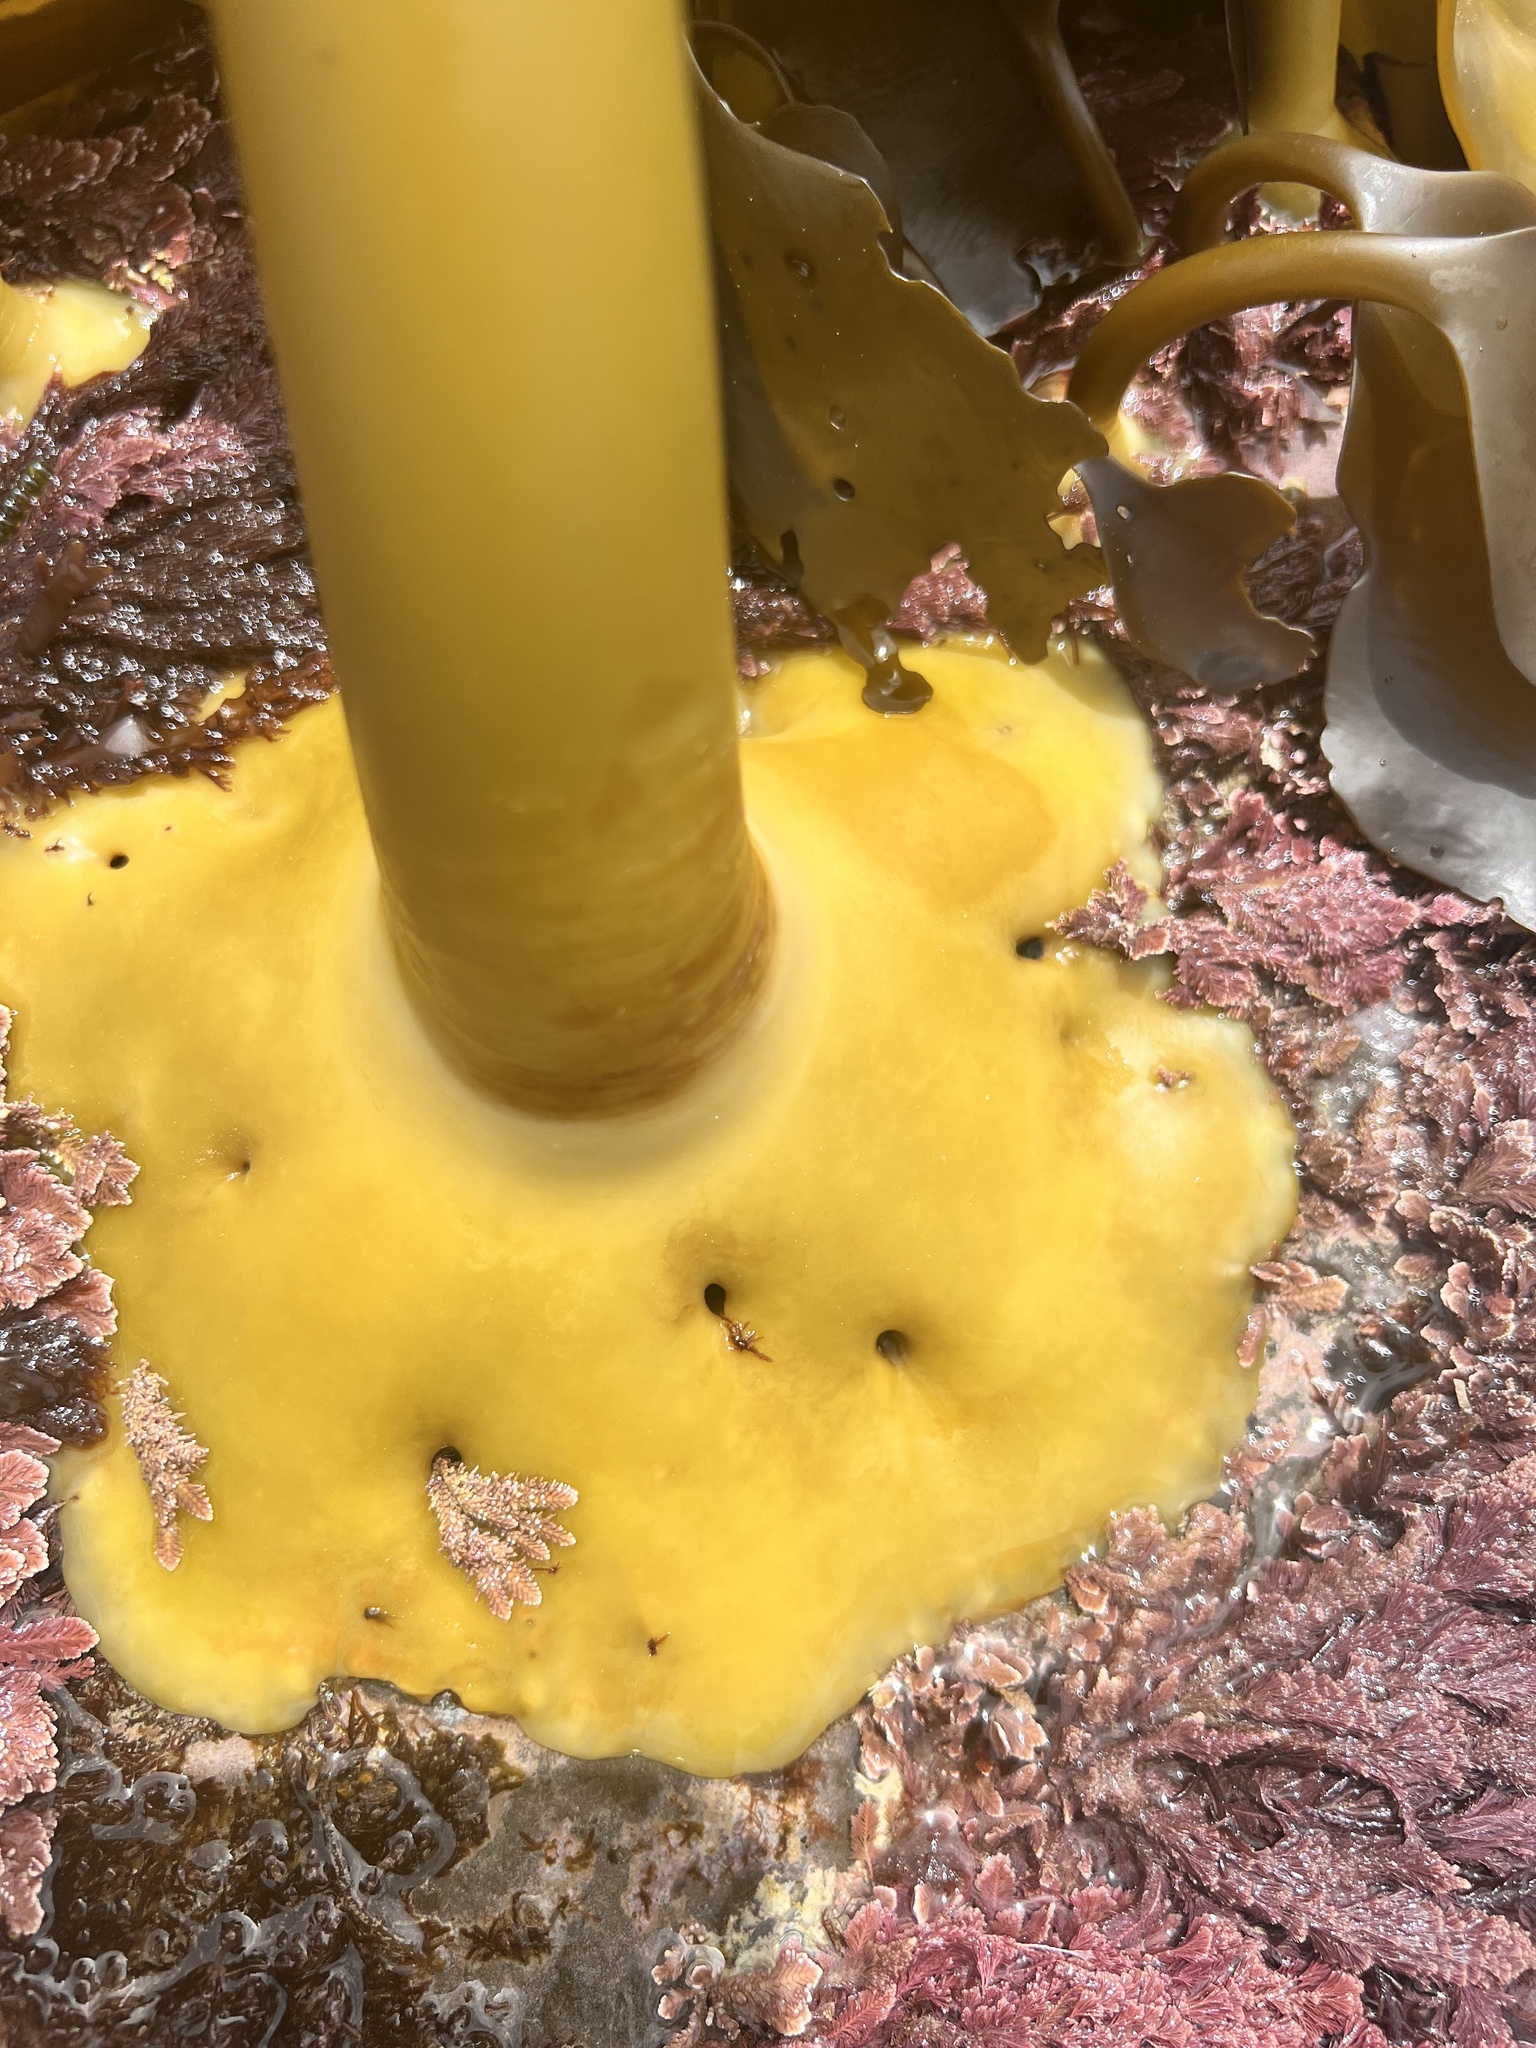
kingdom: Chromista
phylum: Ochrophyta
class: Phaeophyceae
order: Fucales
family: Durvillaeaceae
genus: Durvillaea
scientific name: Durvillaea antarctica
